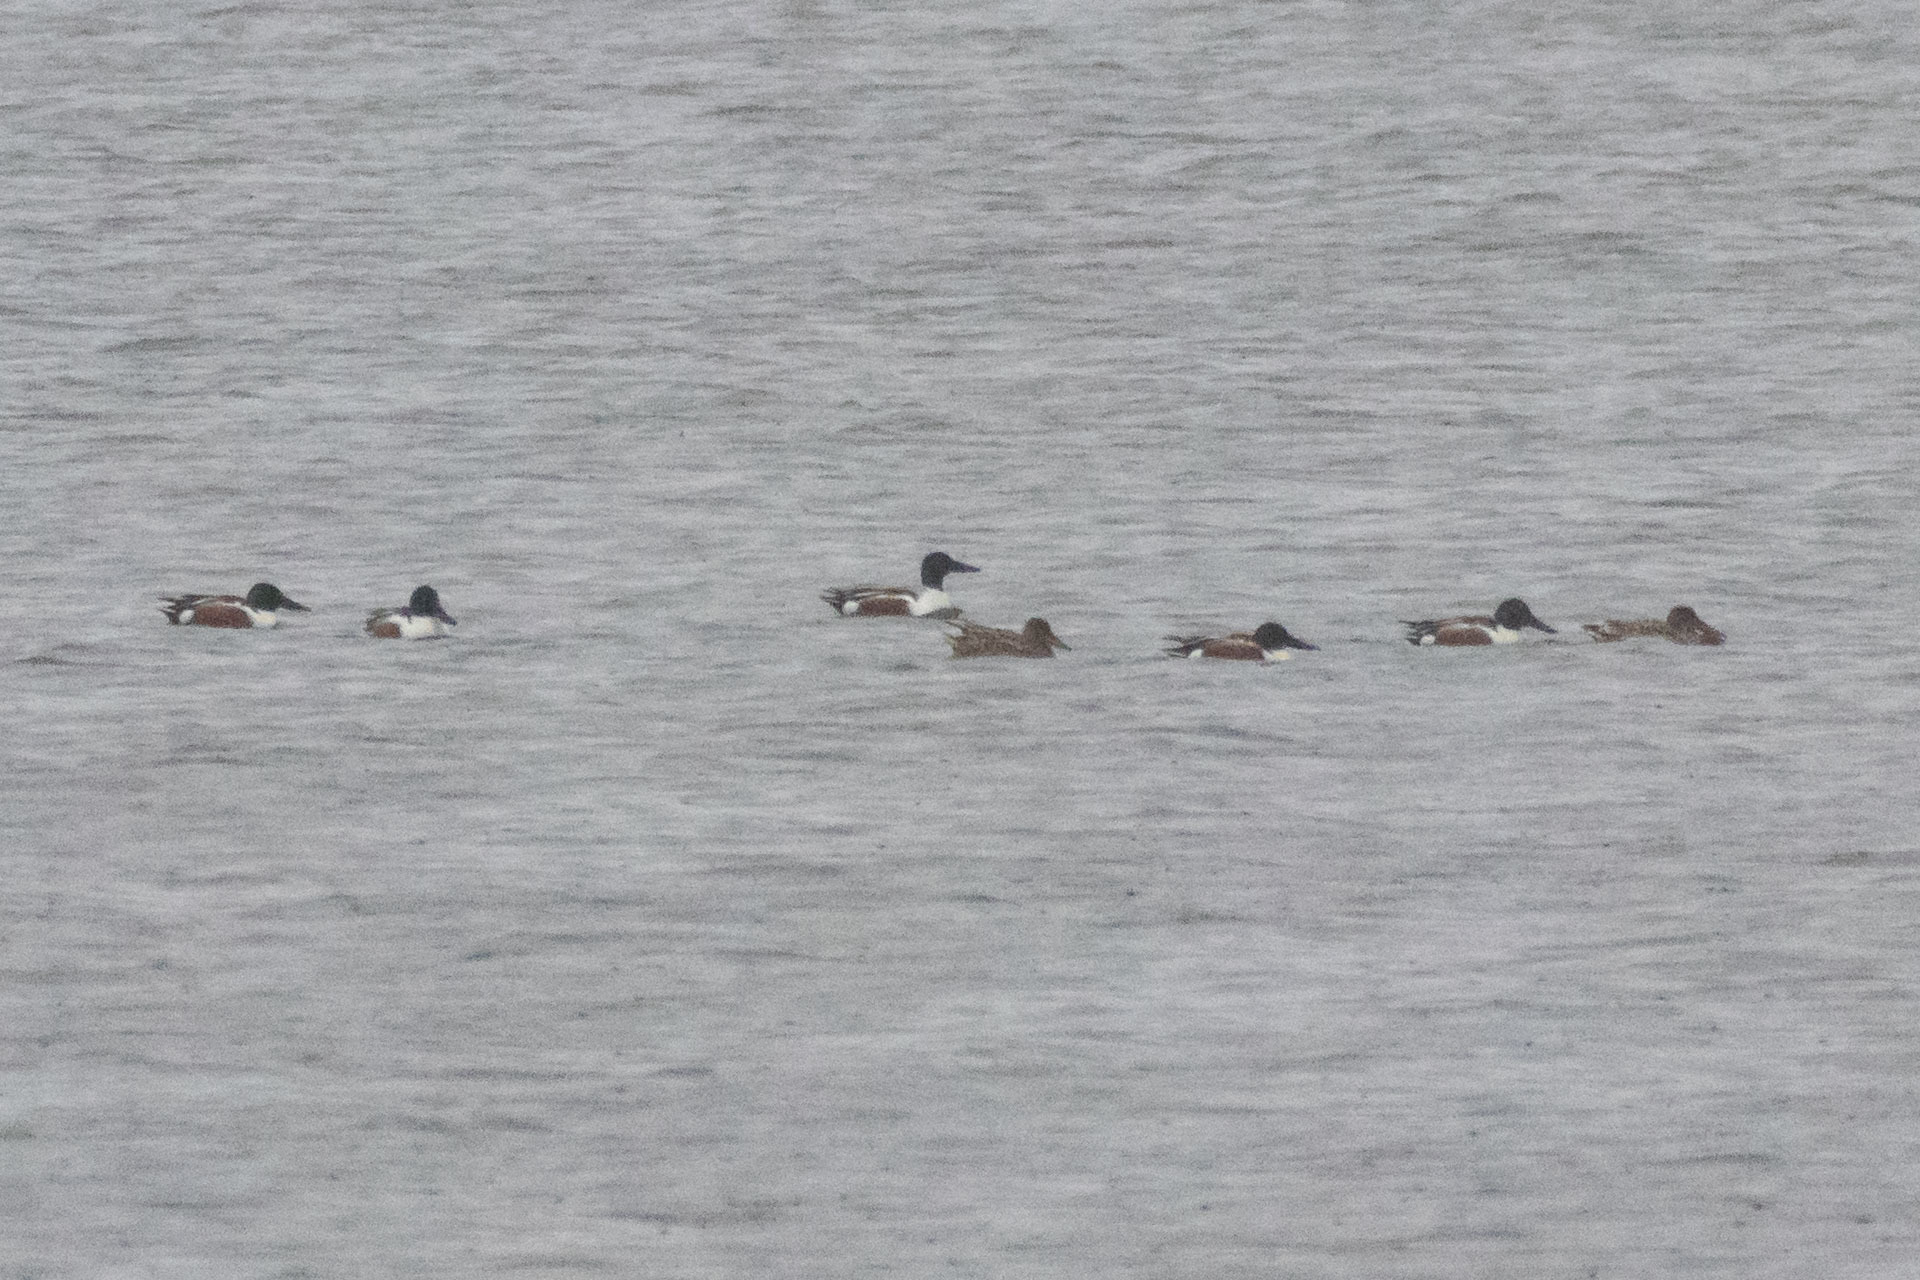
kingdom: Animalia
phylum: Chordata
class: Aves
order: Anseriformes
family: Anatidae
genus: Spatula
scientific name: Spatula clypeata
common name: Northern shoveler
